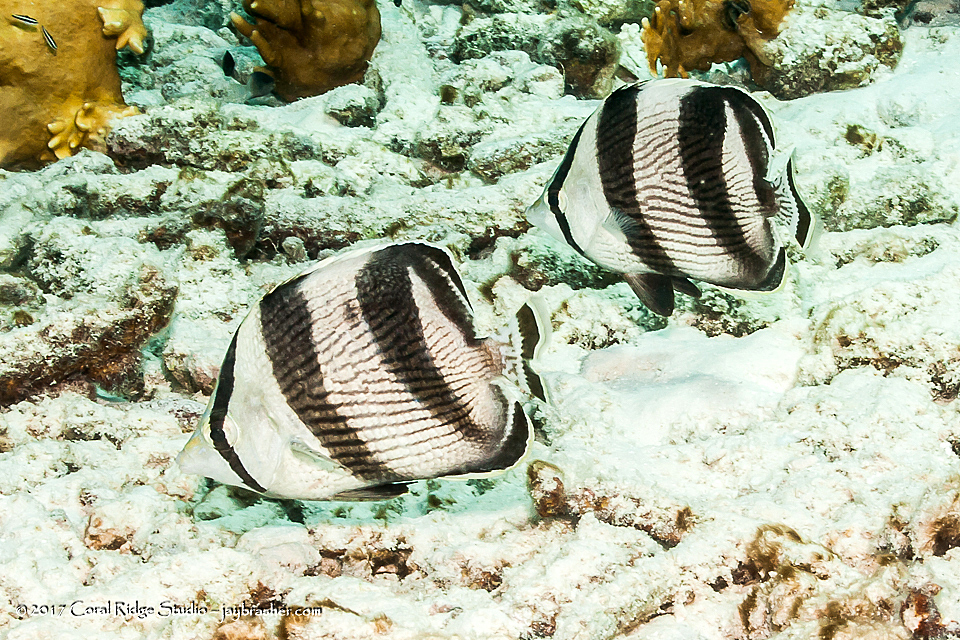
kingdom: Animalia
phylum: Chordata
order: Perciformes
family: Chaetodontidae
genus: Chaetodon
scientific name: Chaetodon striatus
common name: Banded butterflyfish
